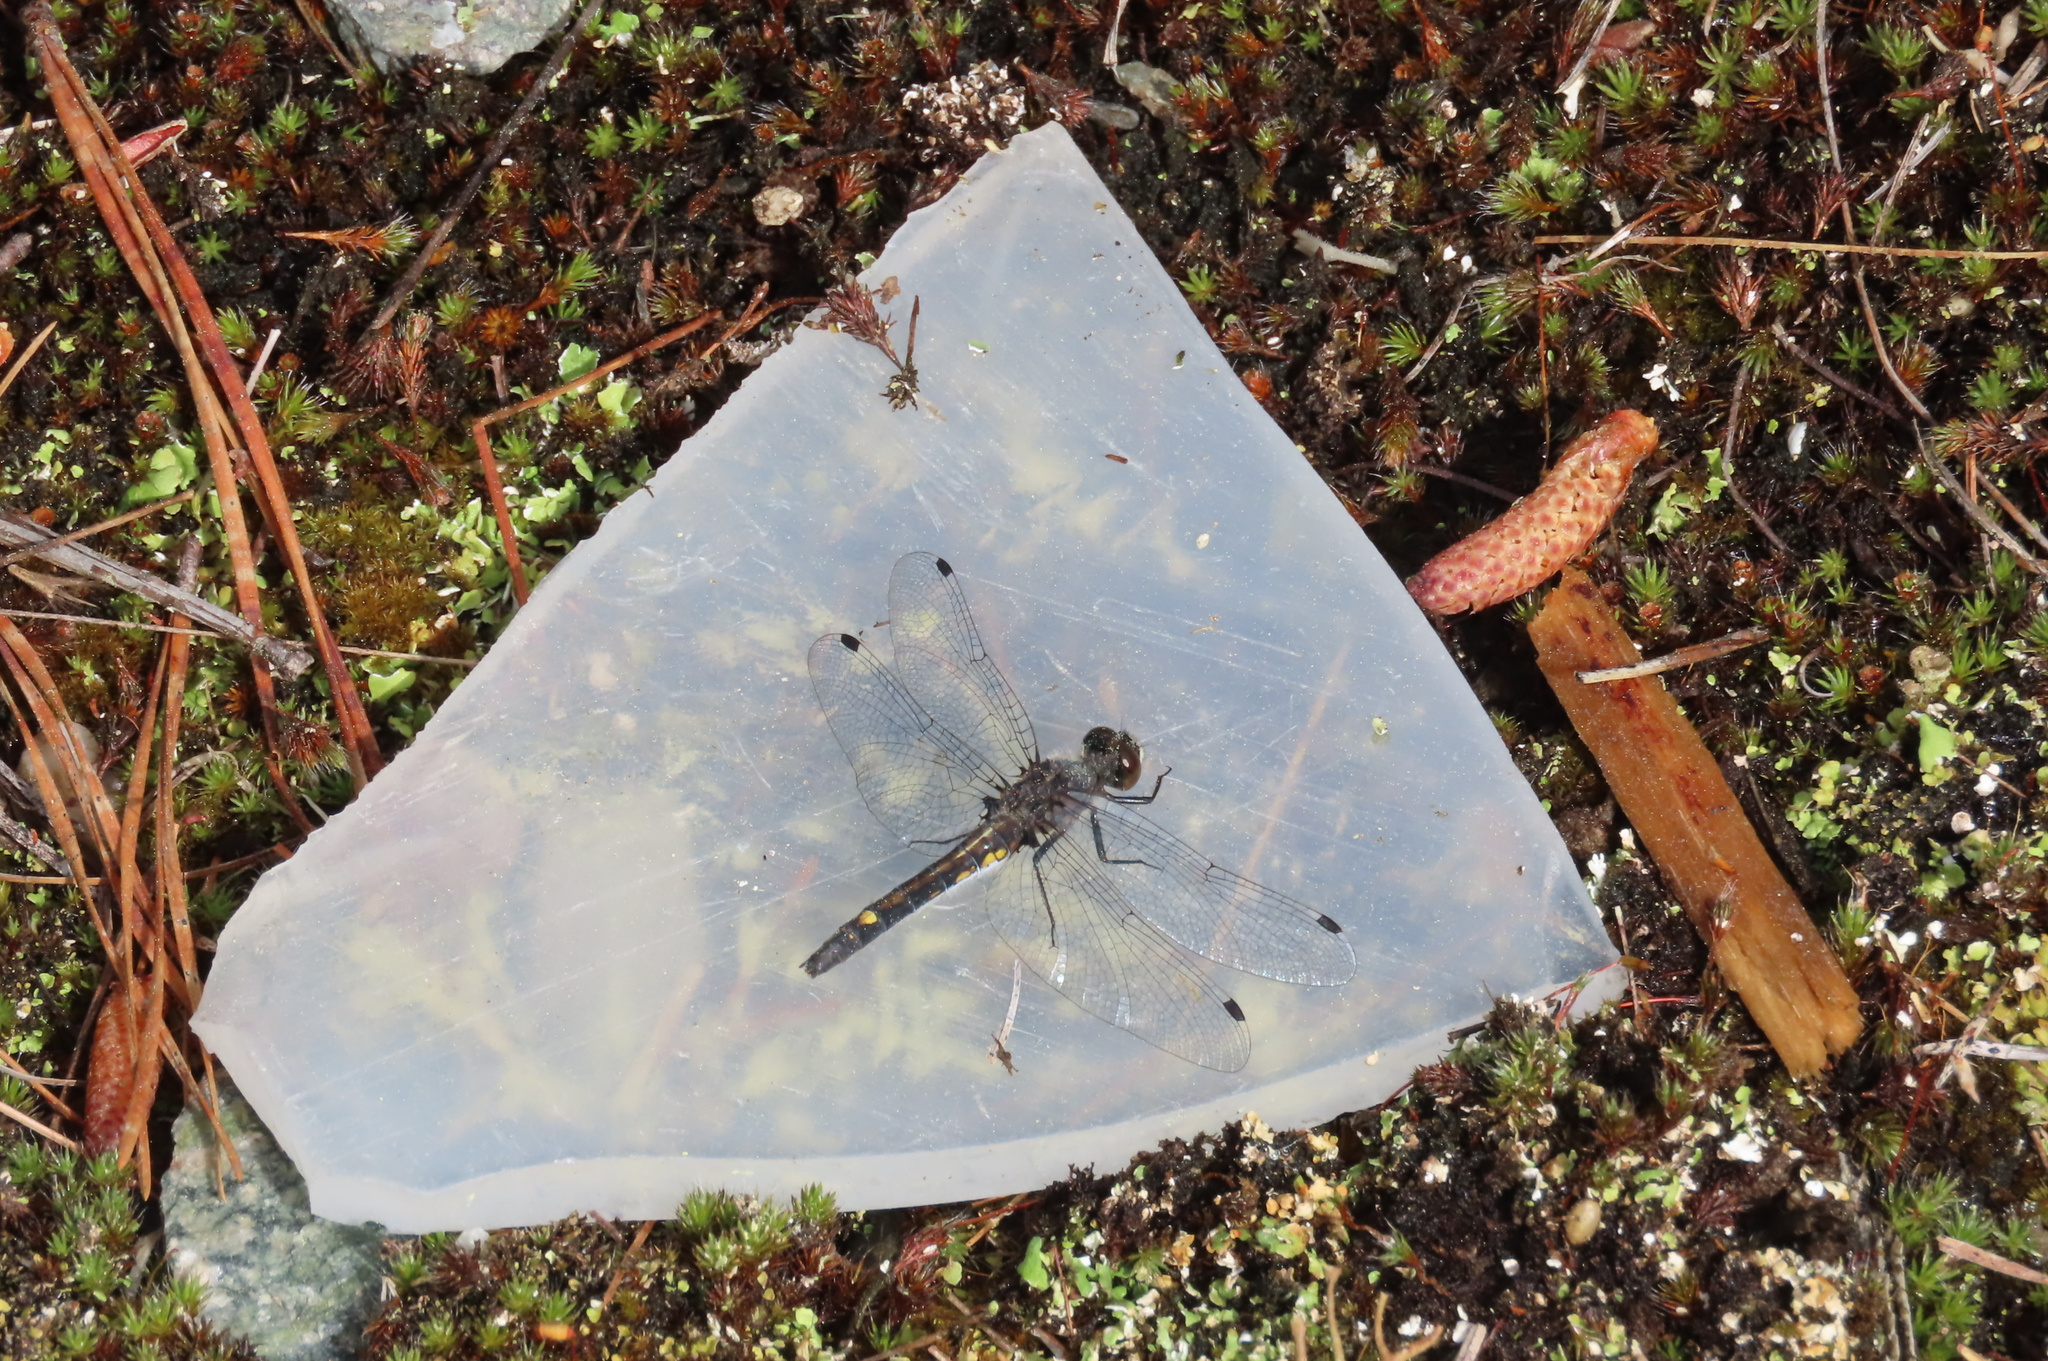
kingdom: Animalia
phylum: Arthropoda
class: Insecta
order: Odonata
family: Libellulidae
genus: Leucorrhinia
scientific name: Leucorrhinia intacta
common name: Dot-tailed whiteface
